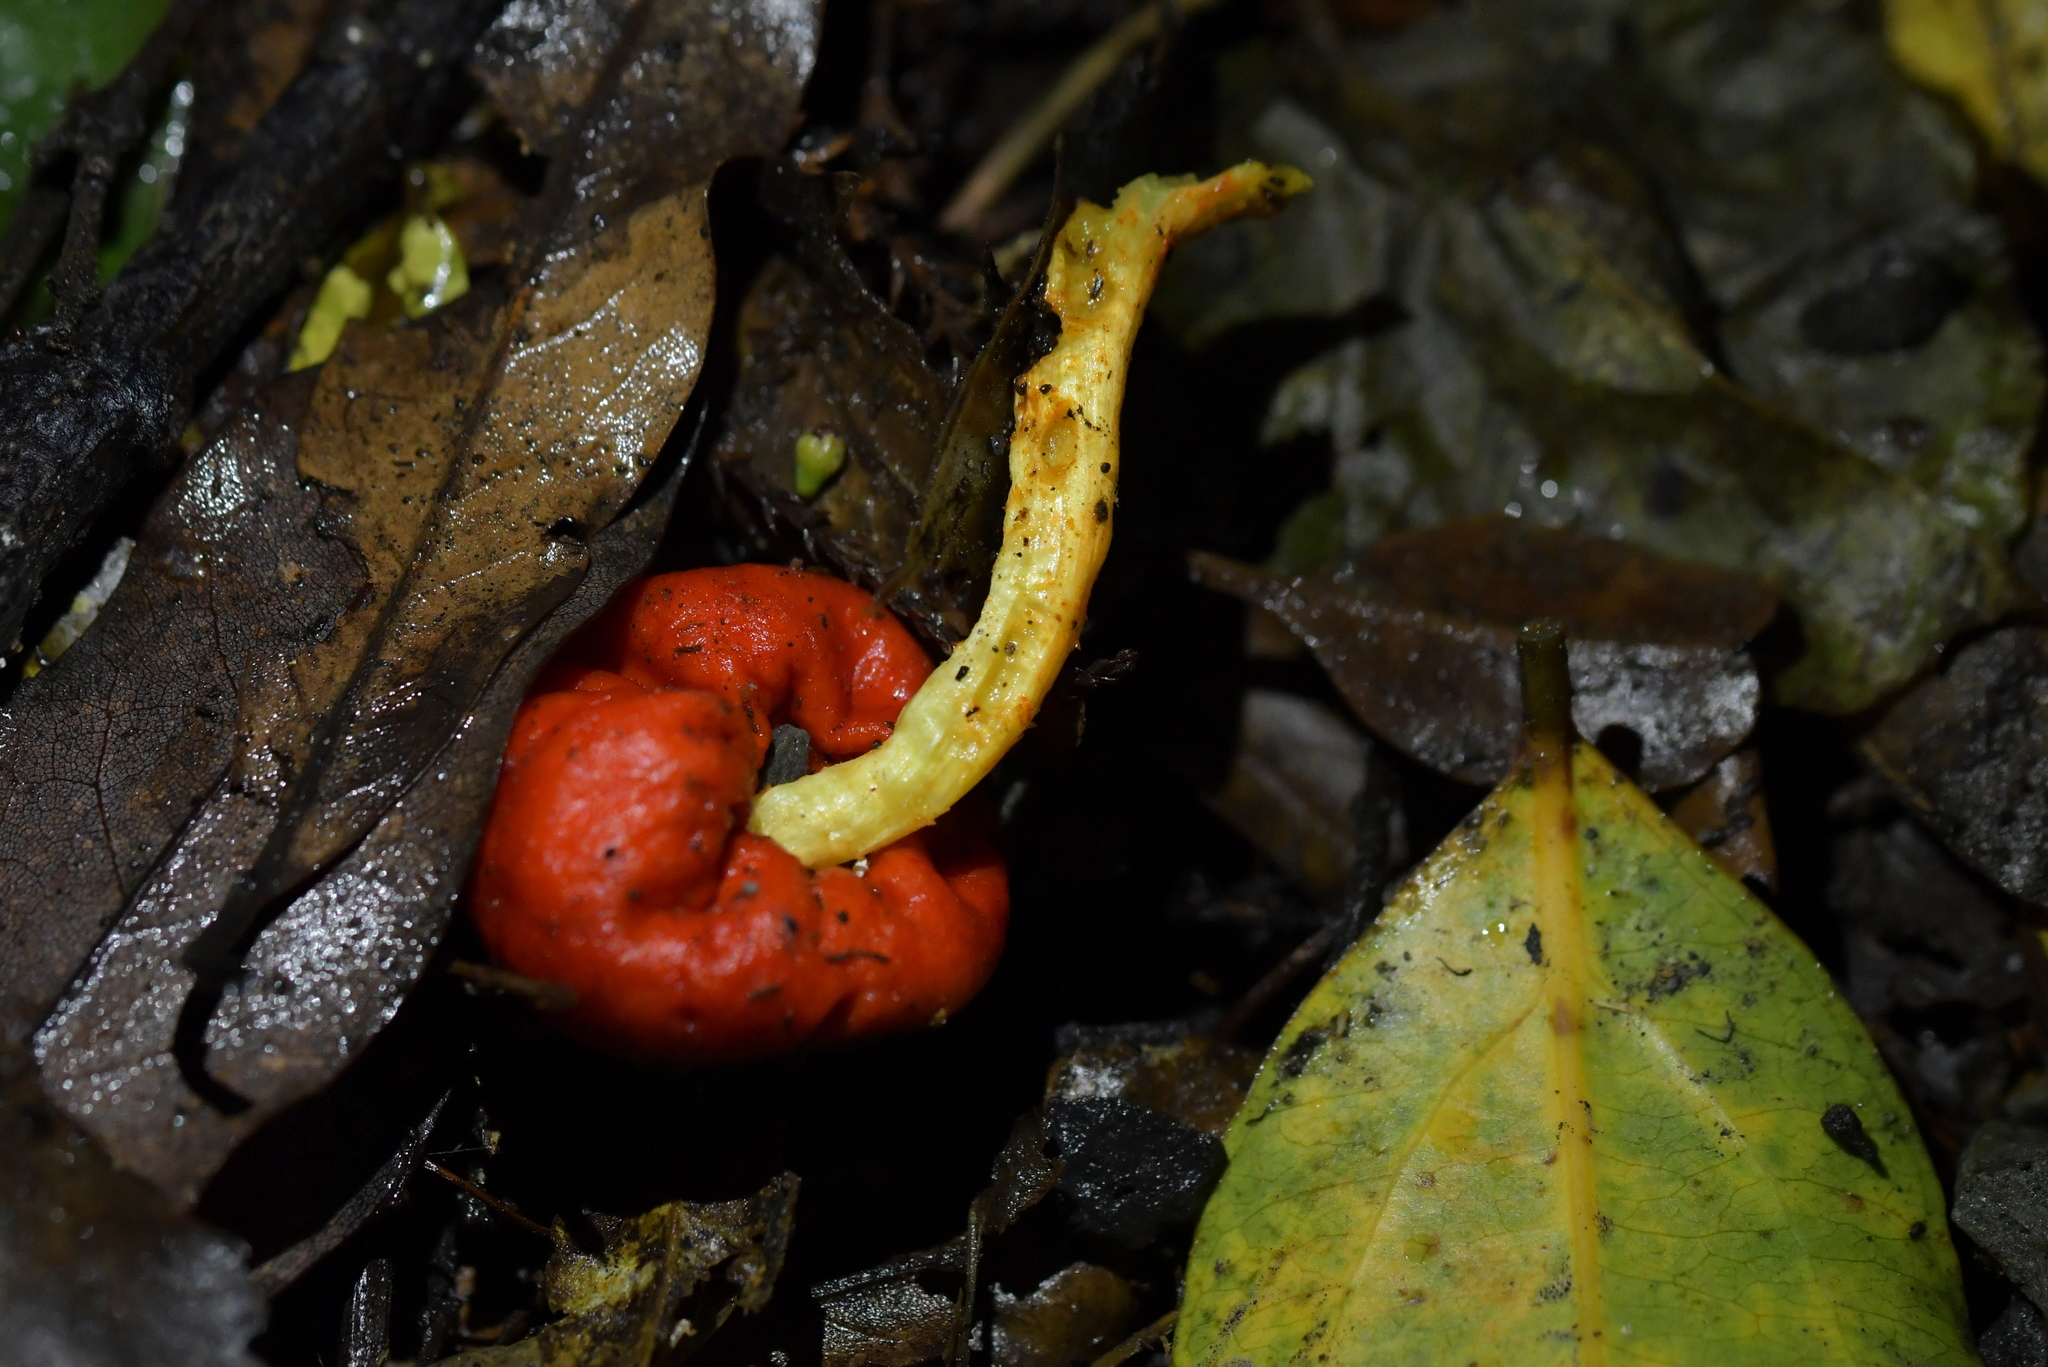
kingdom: Fungi
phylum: Basidiomycota
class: Agaricomycetes
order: Agaricales
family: Strophariaceae
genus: Leratiomyces
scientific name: Leratiomyces erythrocephalus
